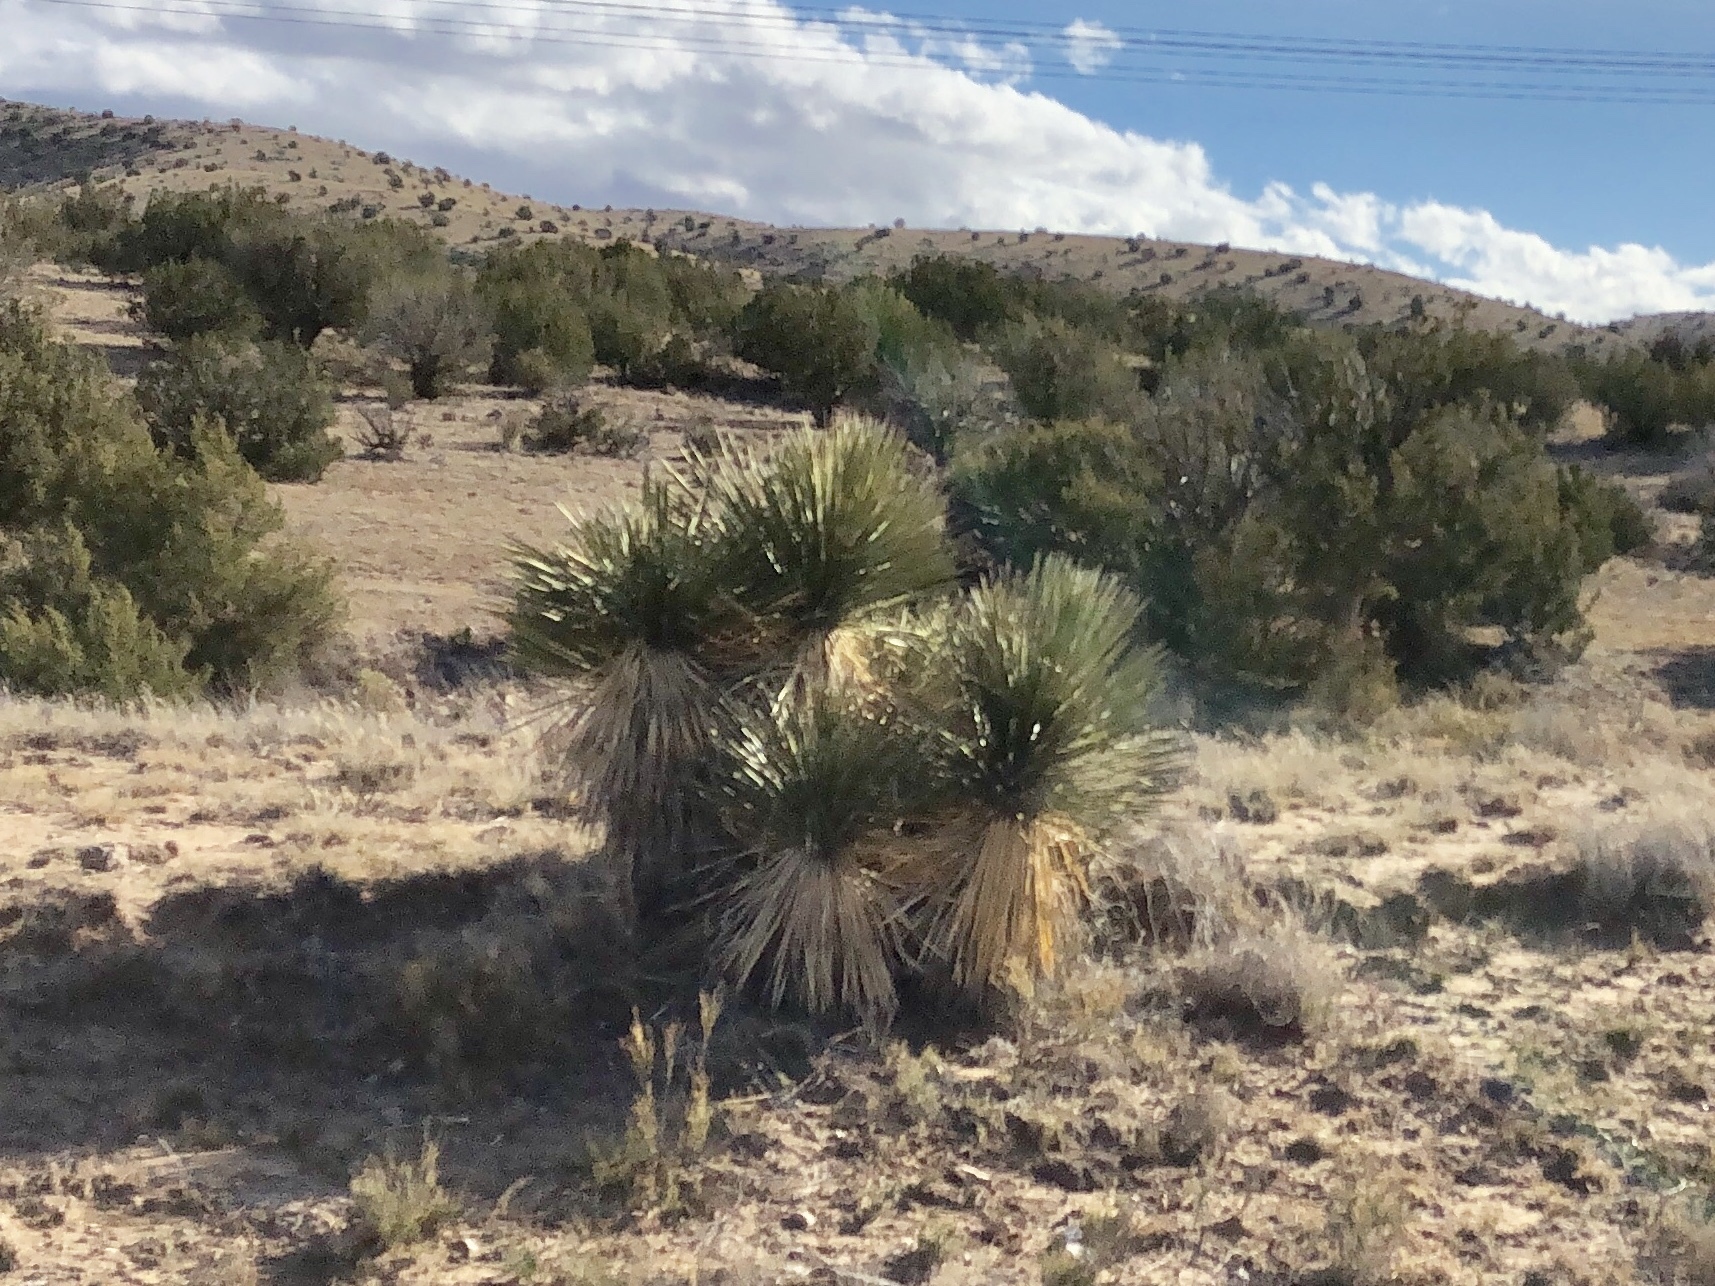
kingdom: Plantae
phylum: Tracheophyta
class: Liliopsida
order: Asparagales
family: Asparagaceae
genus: Yucca
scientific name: Yucca elata
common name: Palmella
